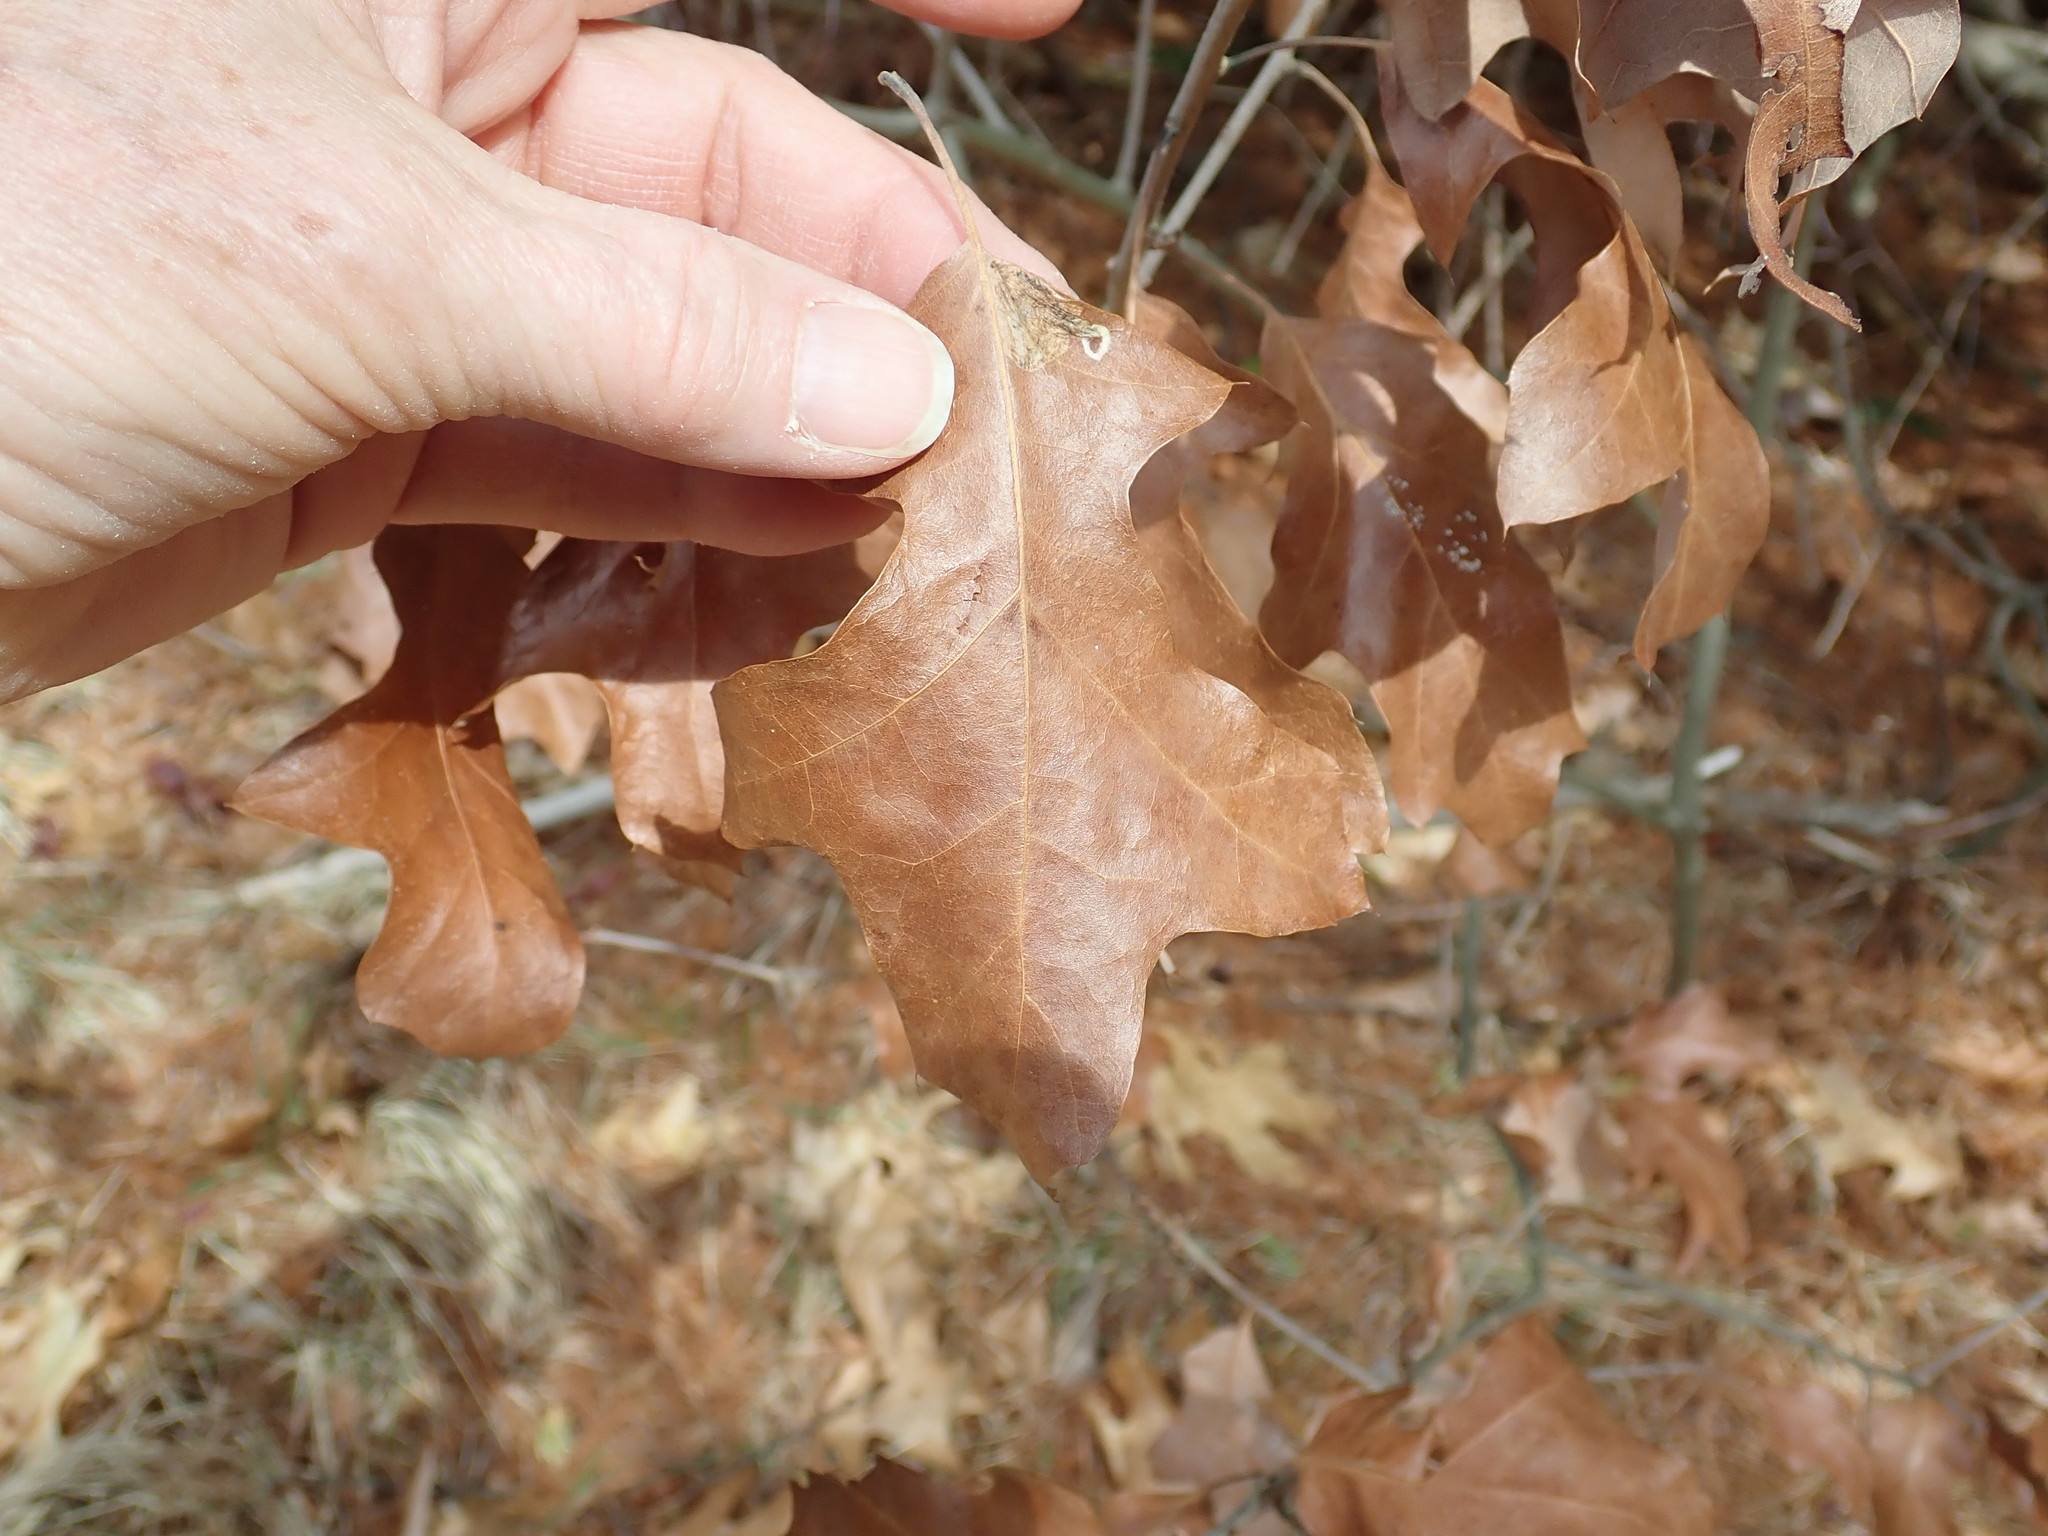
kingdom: Plantae
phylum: Tracheophyta
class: Magnoliopsida
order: Fagales
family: Fagaceae
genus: Quercus
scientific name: Quercus ilicifolia
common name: Bear oak
